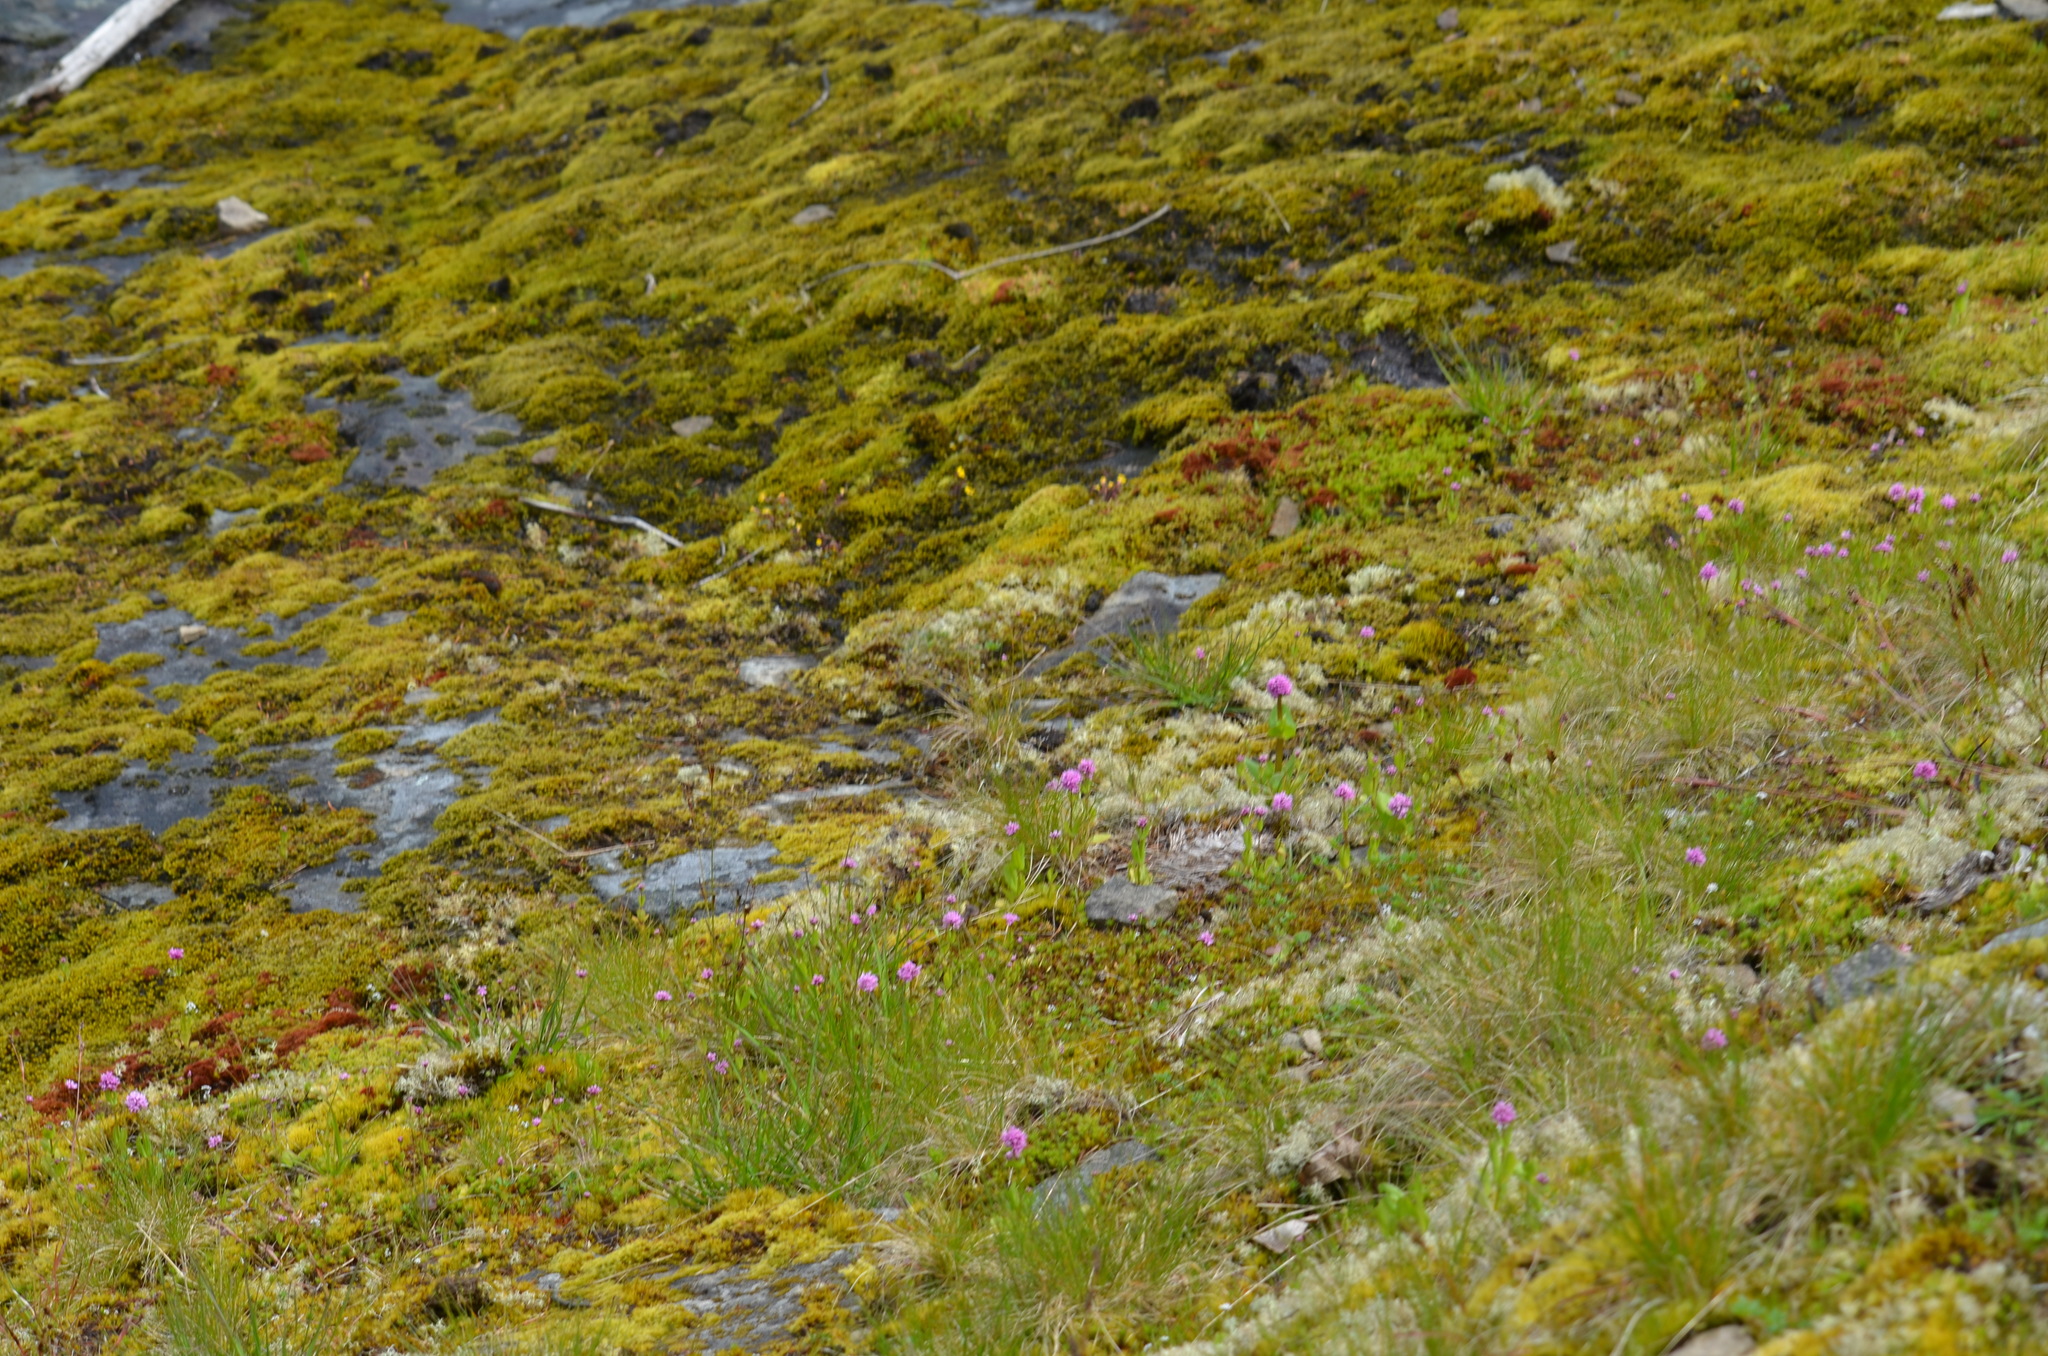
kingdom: Plantae
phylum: Tracheophyta
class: Magnoliopsida
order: Dipsacales
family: Caprifoliaceae
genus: Plectritis
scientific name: Plectritis congesta
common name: Pink plectritis
